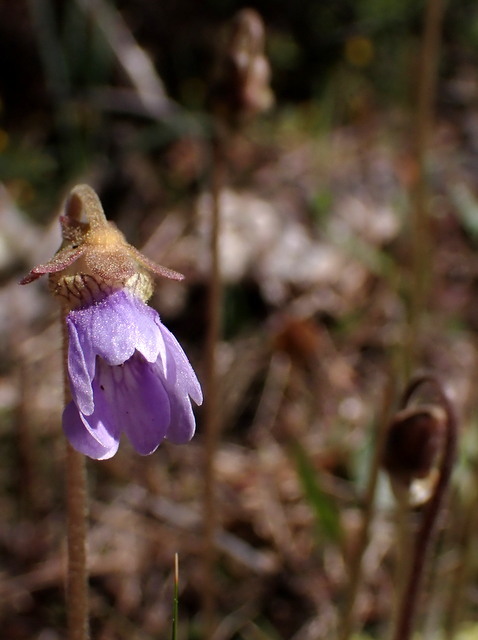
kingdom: Plantae
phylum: Tracheophyta
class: Magnoliopsida
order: Lamiales
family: Lentibulariaceae
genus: Pinguicula
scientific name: Pinguicula caerulea
